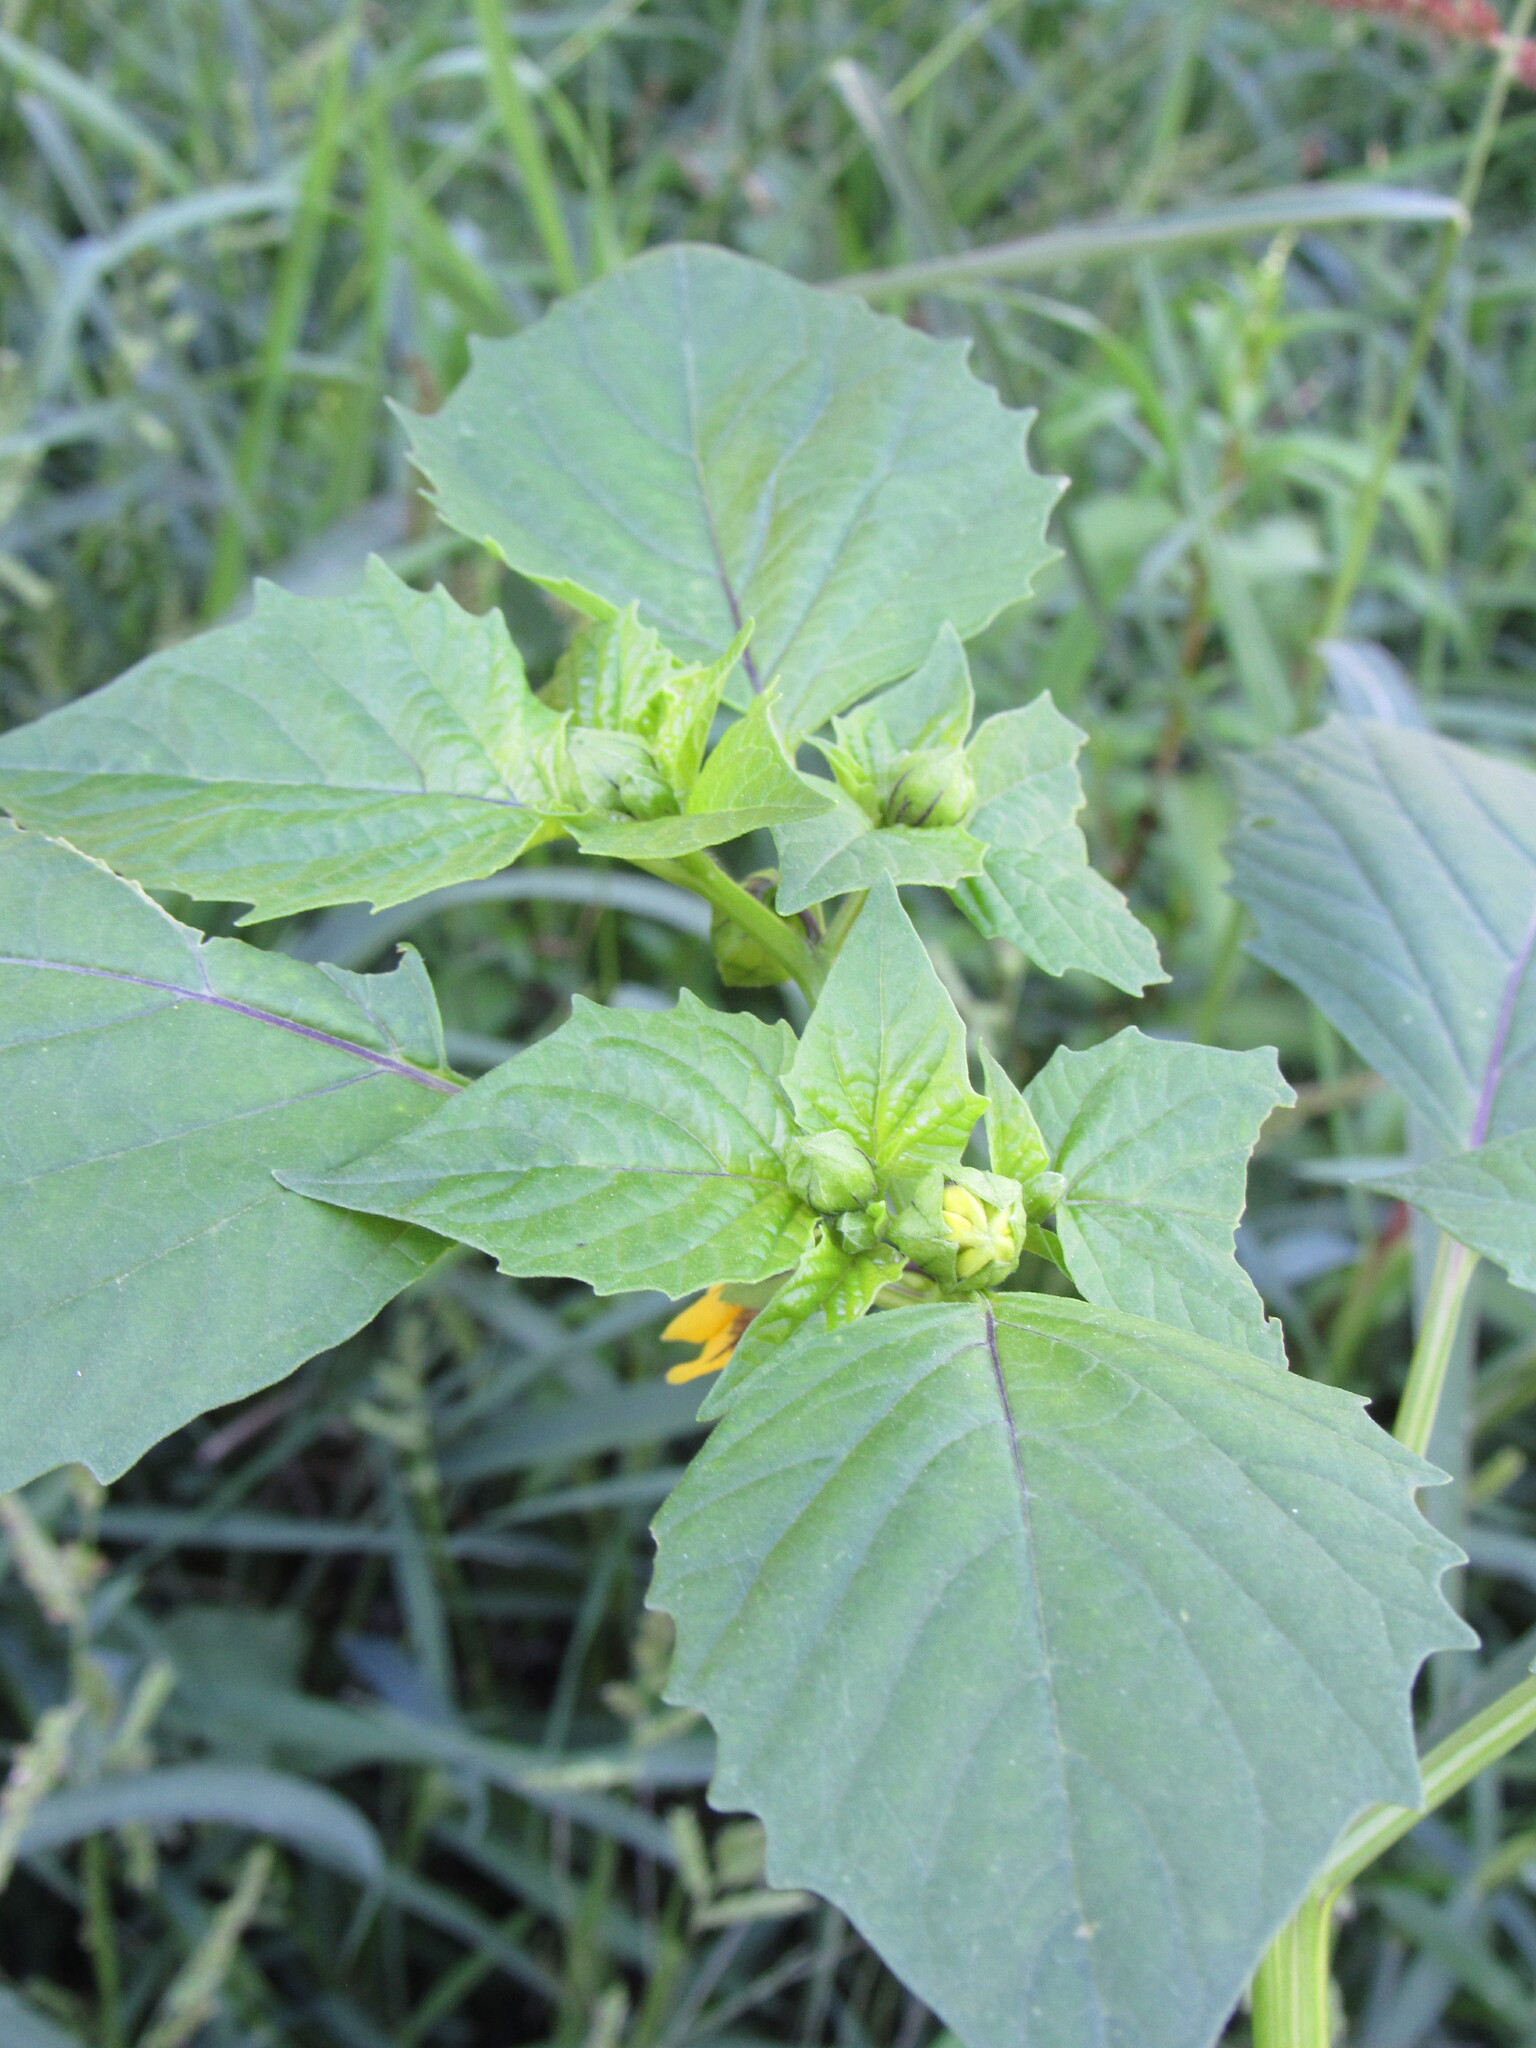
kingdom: Plantae
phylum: Tracheophyta
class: Magnoliopsida
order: Solanales
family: Solanaceae
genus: Physalis
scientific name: Physalis philadelphica
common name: Husk-tomato
